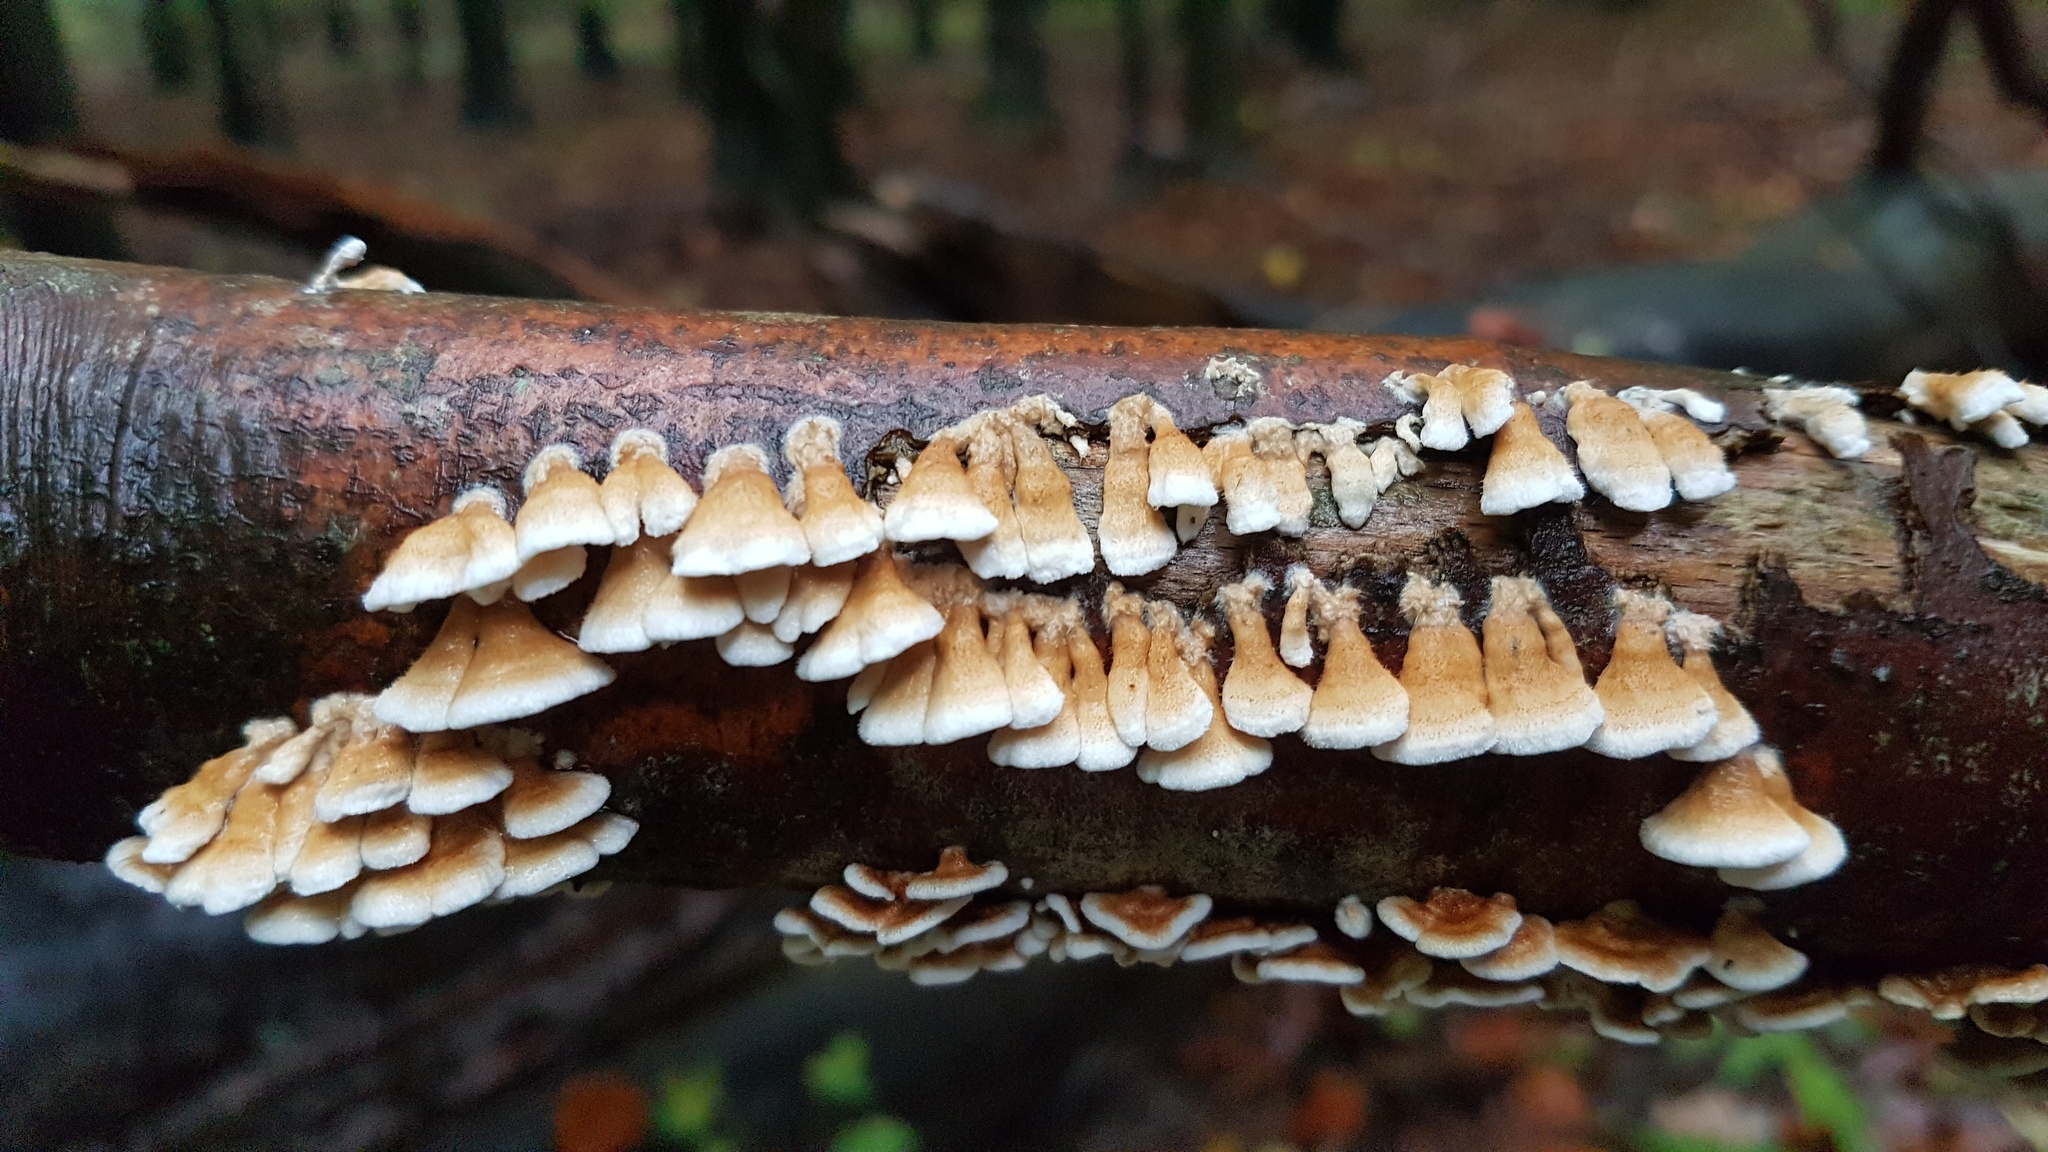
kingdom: Fungi
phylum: Basidiomycota
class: Agaricomycetes
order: Amylocorticiales
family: Amylocorticiaceae
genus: Plicaturopsis
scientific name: Plicaturopsis crispa
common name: Crimped gill
